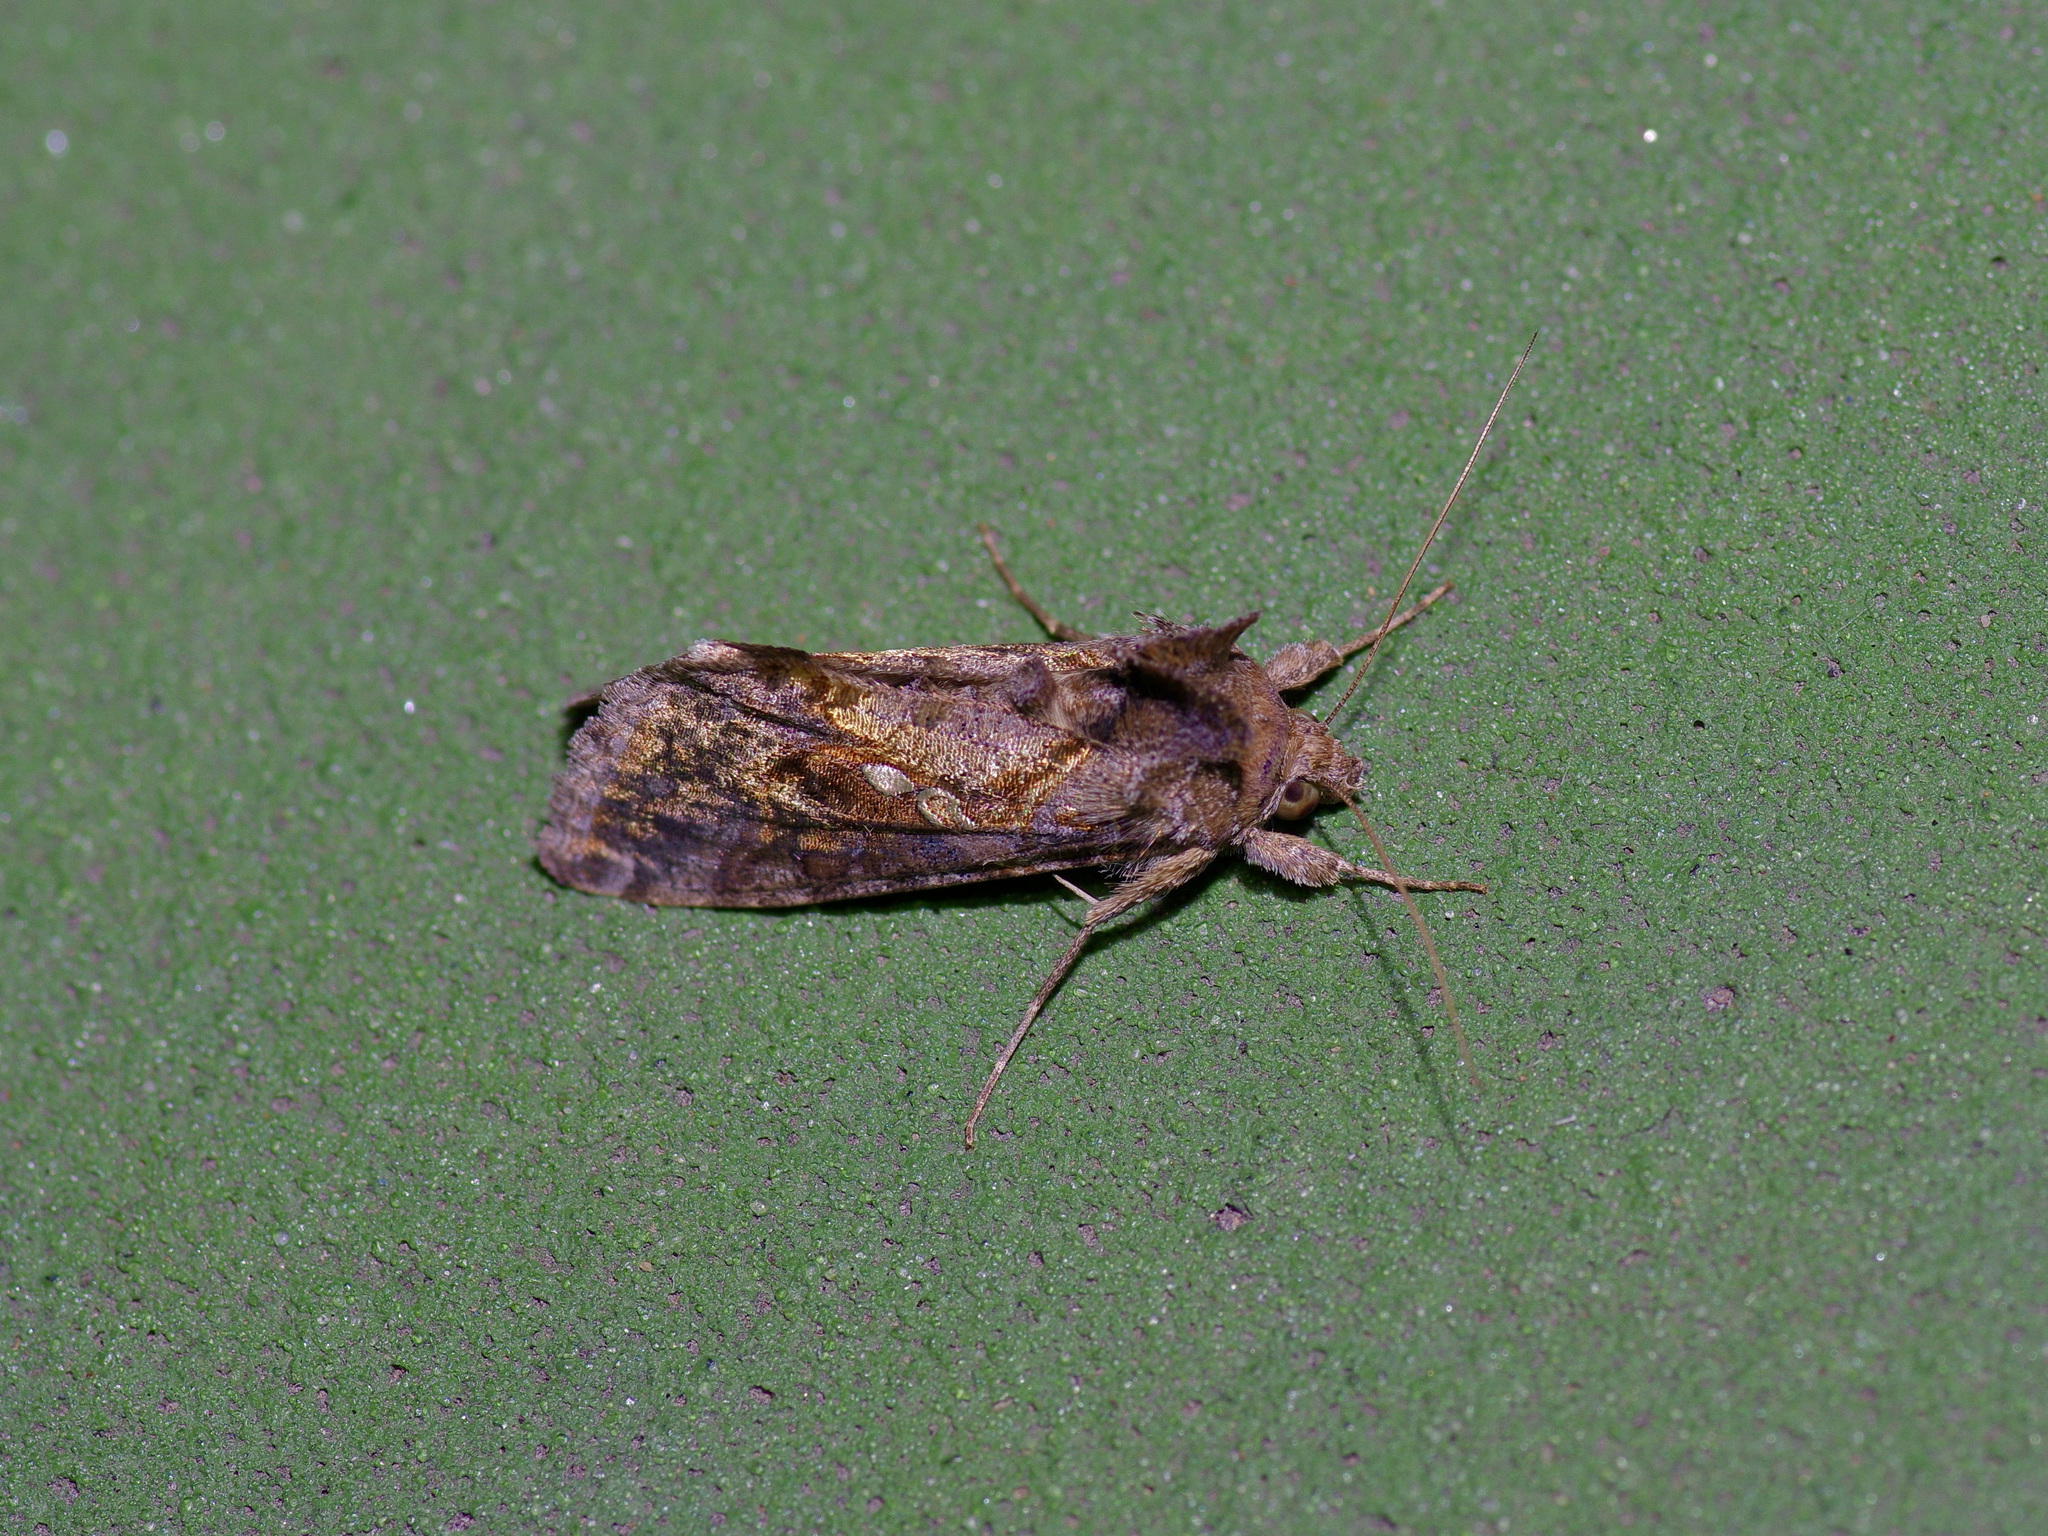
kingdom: Animalia
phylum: Arthropoda
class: Insecta
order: Lepidoptera
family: Noctuidae
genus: Chrysodeixis
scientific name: Chrysodeixis includens
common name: Cutworm moth
